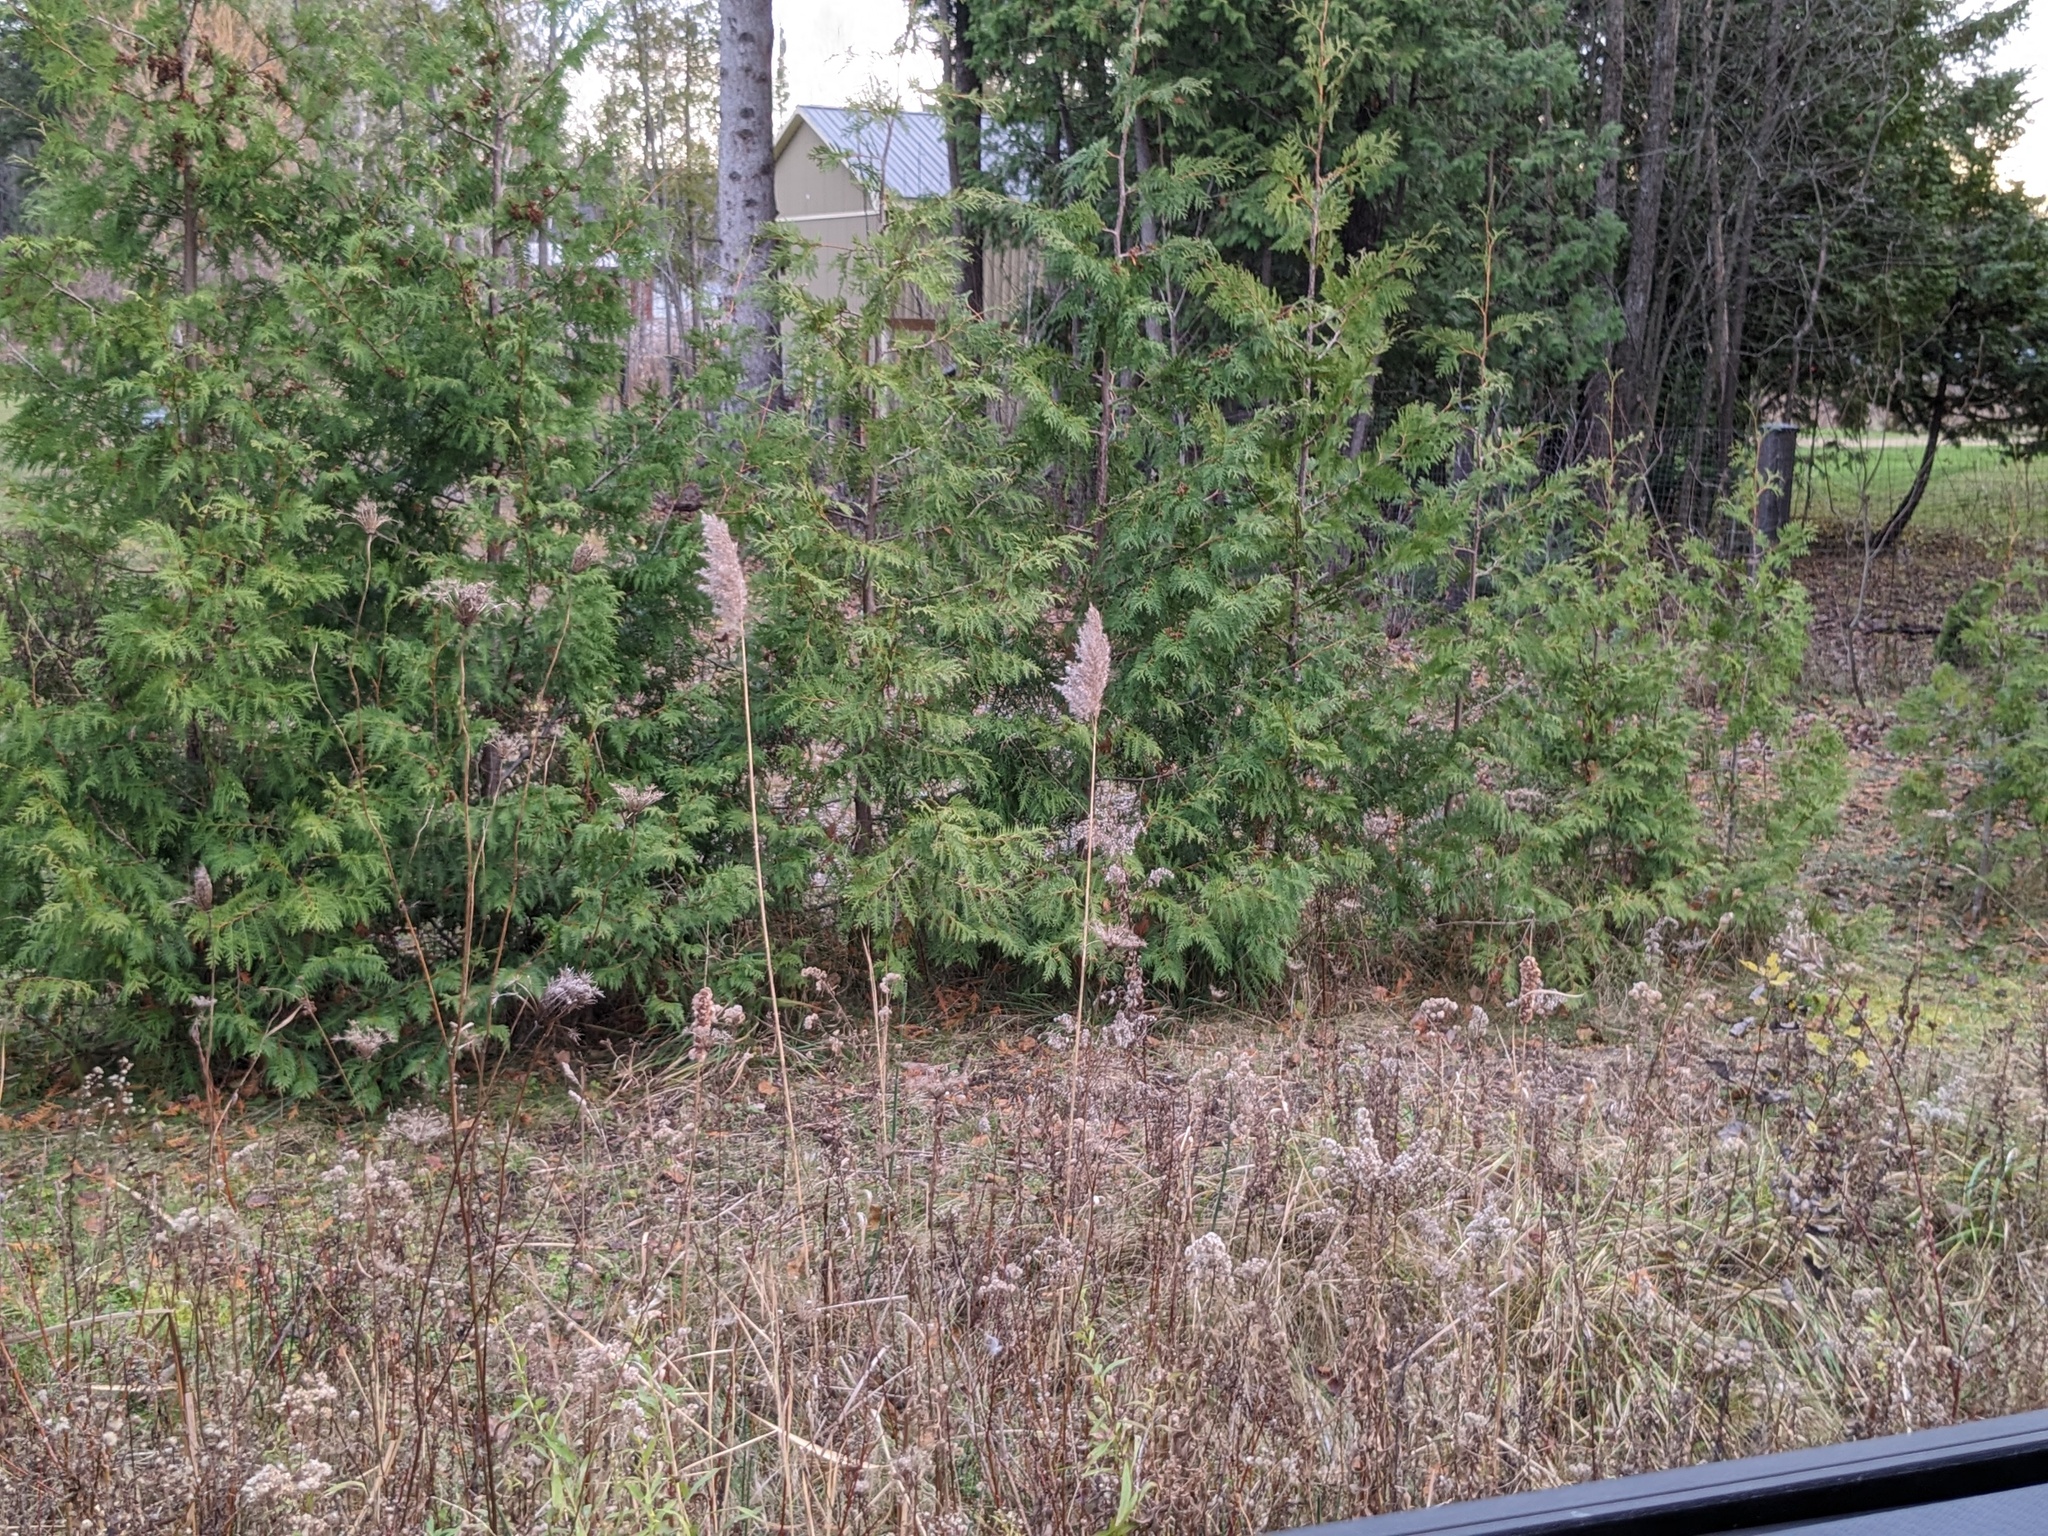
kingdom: Plantae
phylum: Tracheophyta
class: Liliopsida
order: Poales
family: Poaceae
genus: Phragmites
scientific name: Phragmites australis
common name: Common reed
